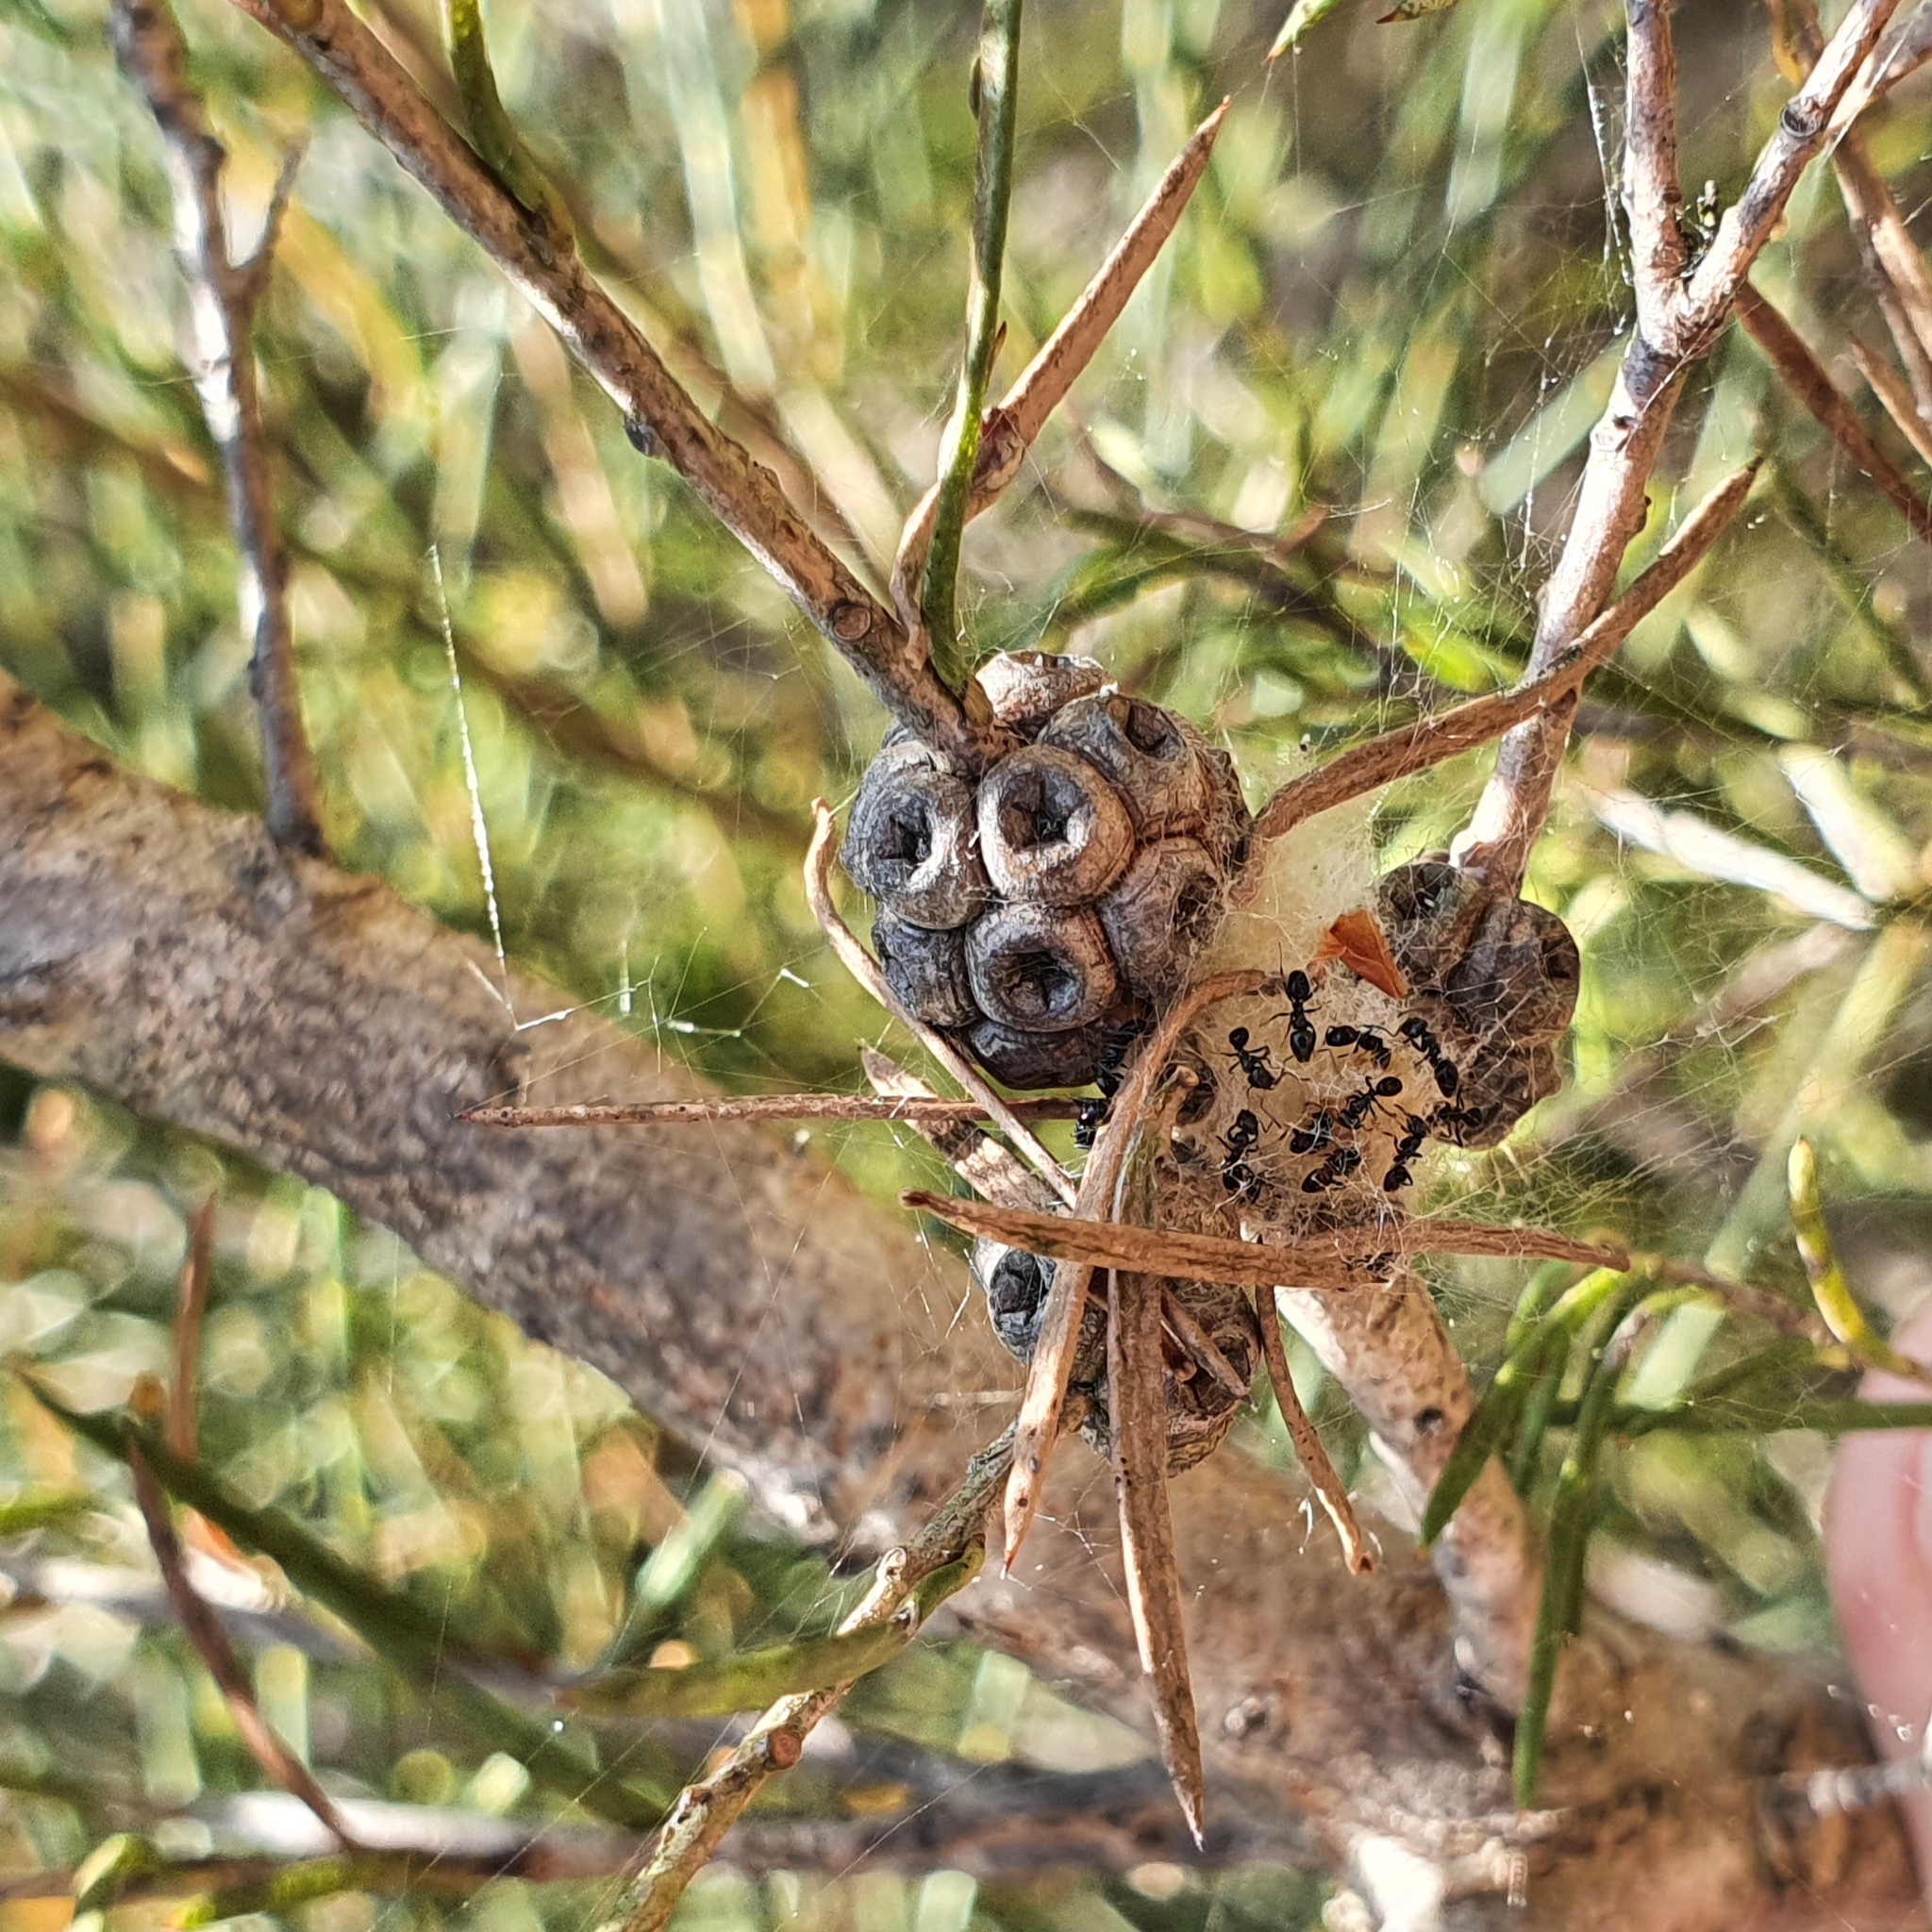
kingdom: Plantae
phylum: Tracheophyta
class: Magnoliopsida
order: Myrtales
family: Myrtaceae
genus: Melaleuca
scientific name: Melaleuca nodosa
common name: Prickly-leaf paperbark
